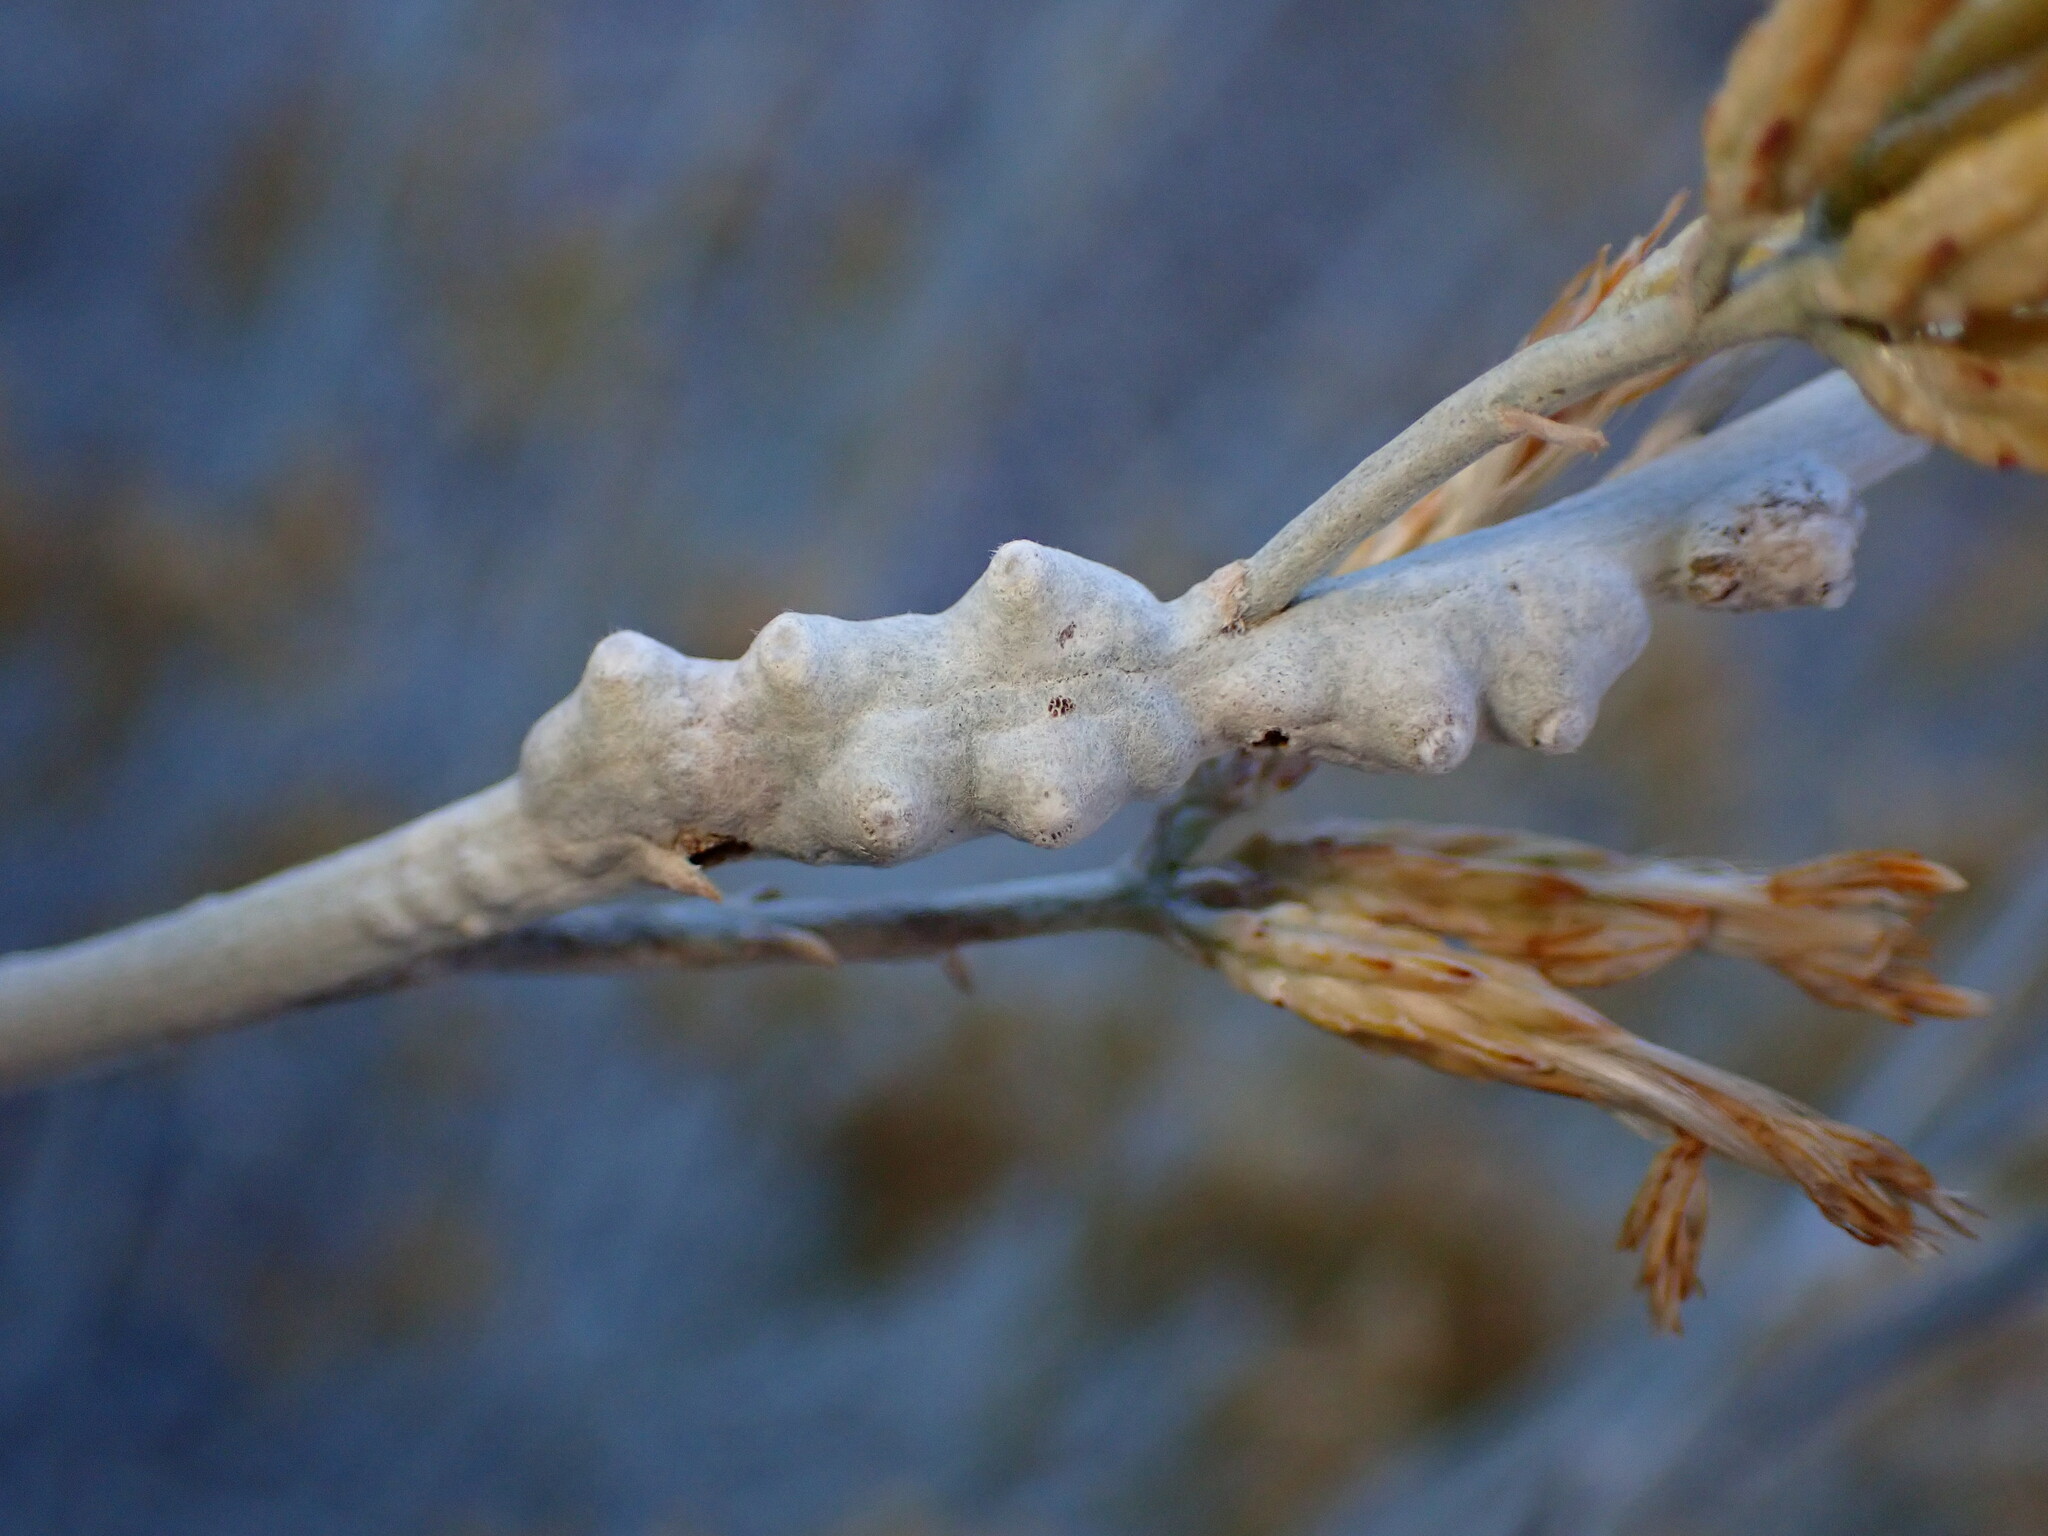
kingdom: Animalia
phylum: Arthropoda
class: Insecta
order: Diptera
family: Cecidomyiidae
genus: Rhopalomyia
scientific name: Rhopalomyia chrysothamni
